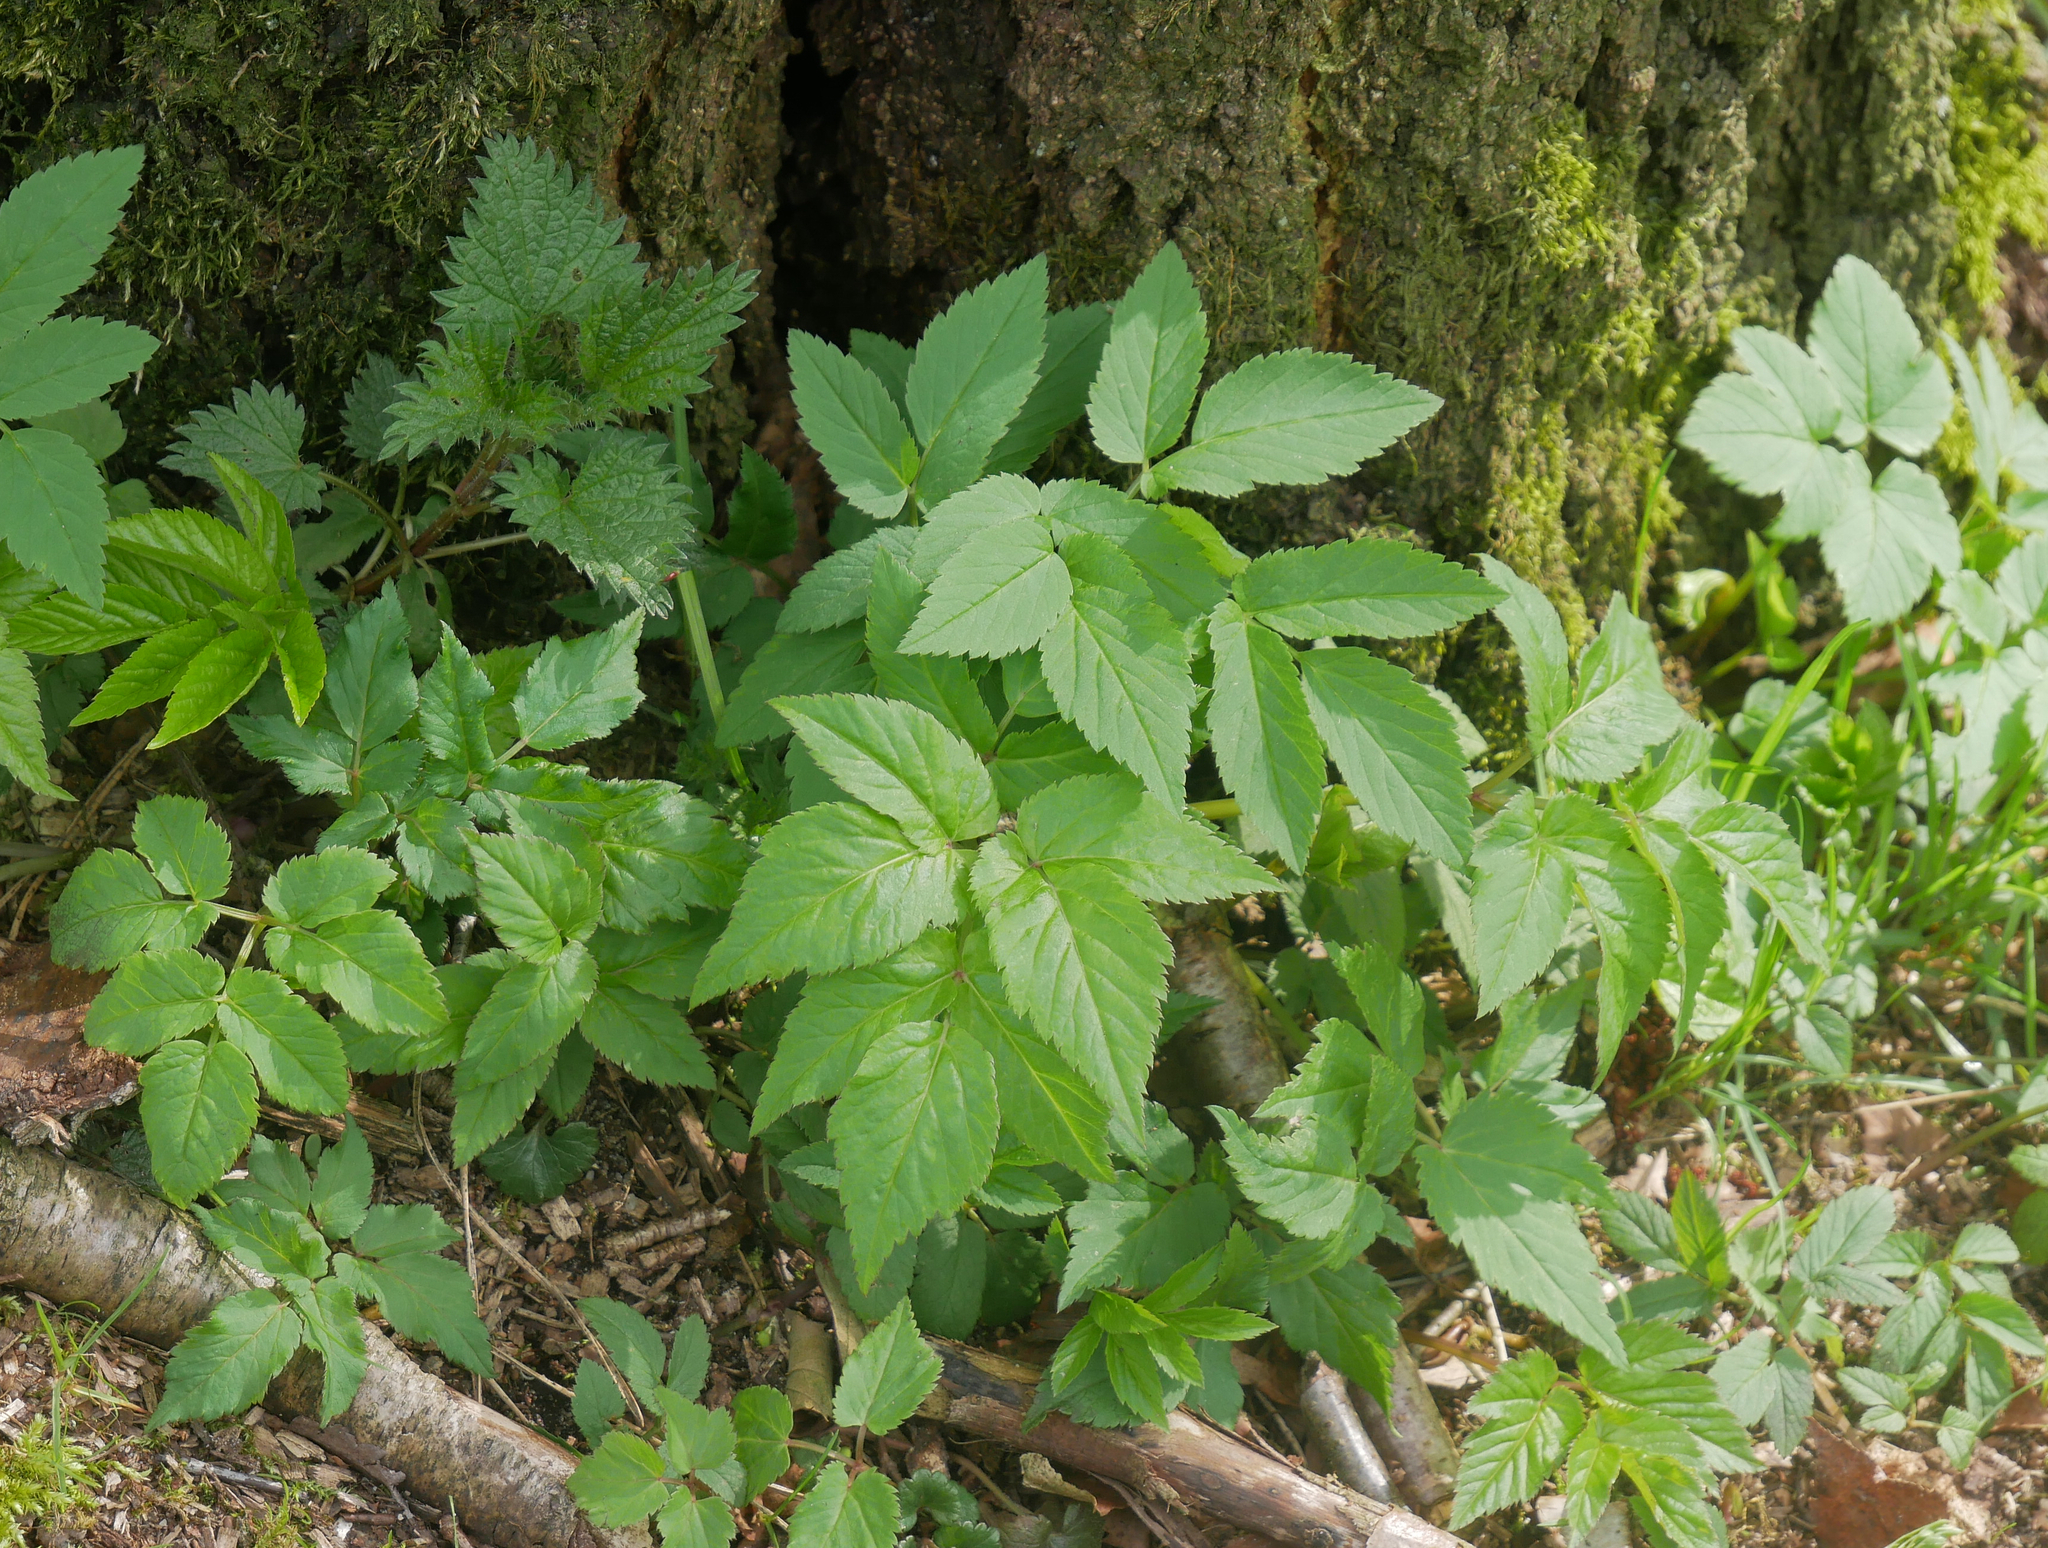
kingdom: Plantae
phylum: Tracheophyta
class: Magnoliopsida
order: Apiales
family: Apiaceae
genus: Aegopodium
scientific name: Aegopodium podagraria
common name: Ground-elder
